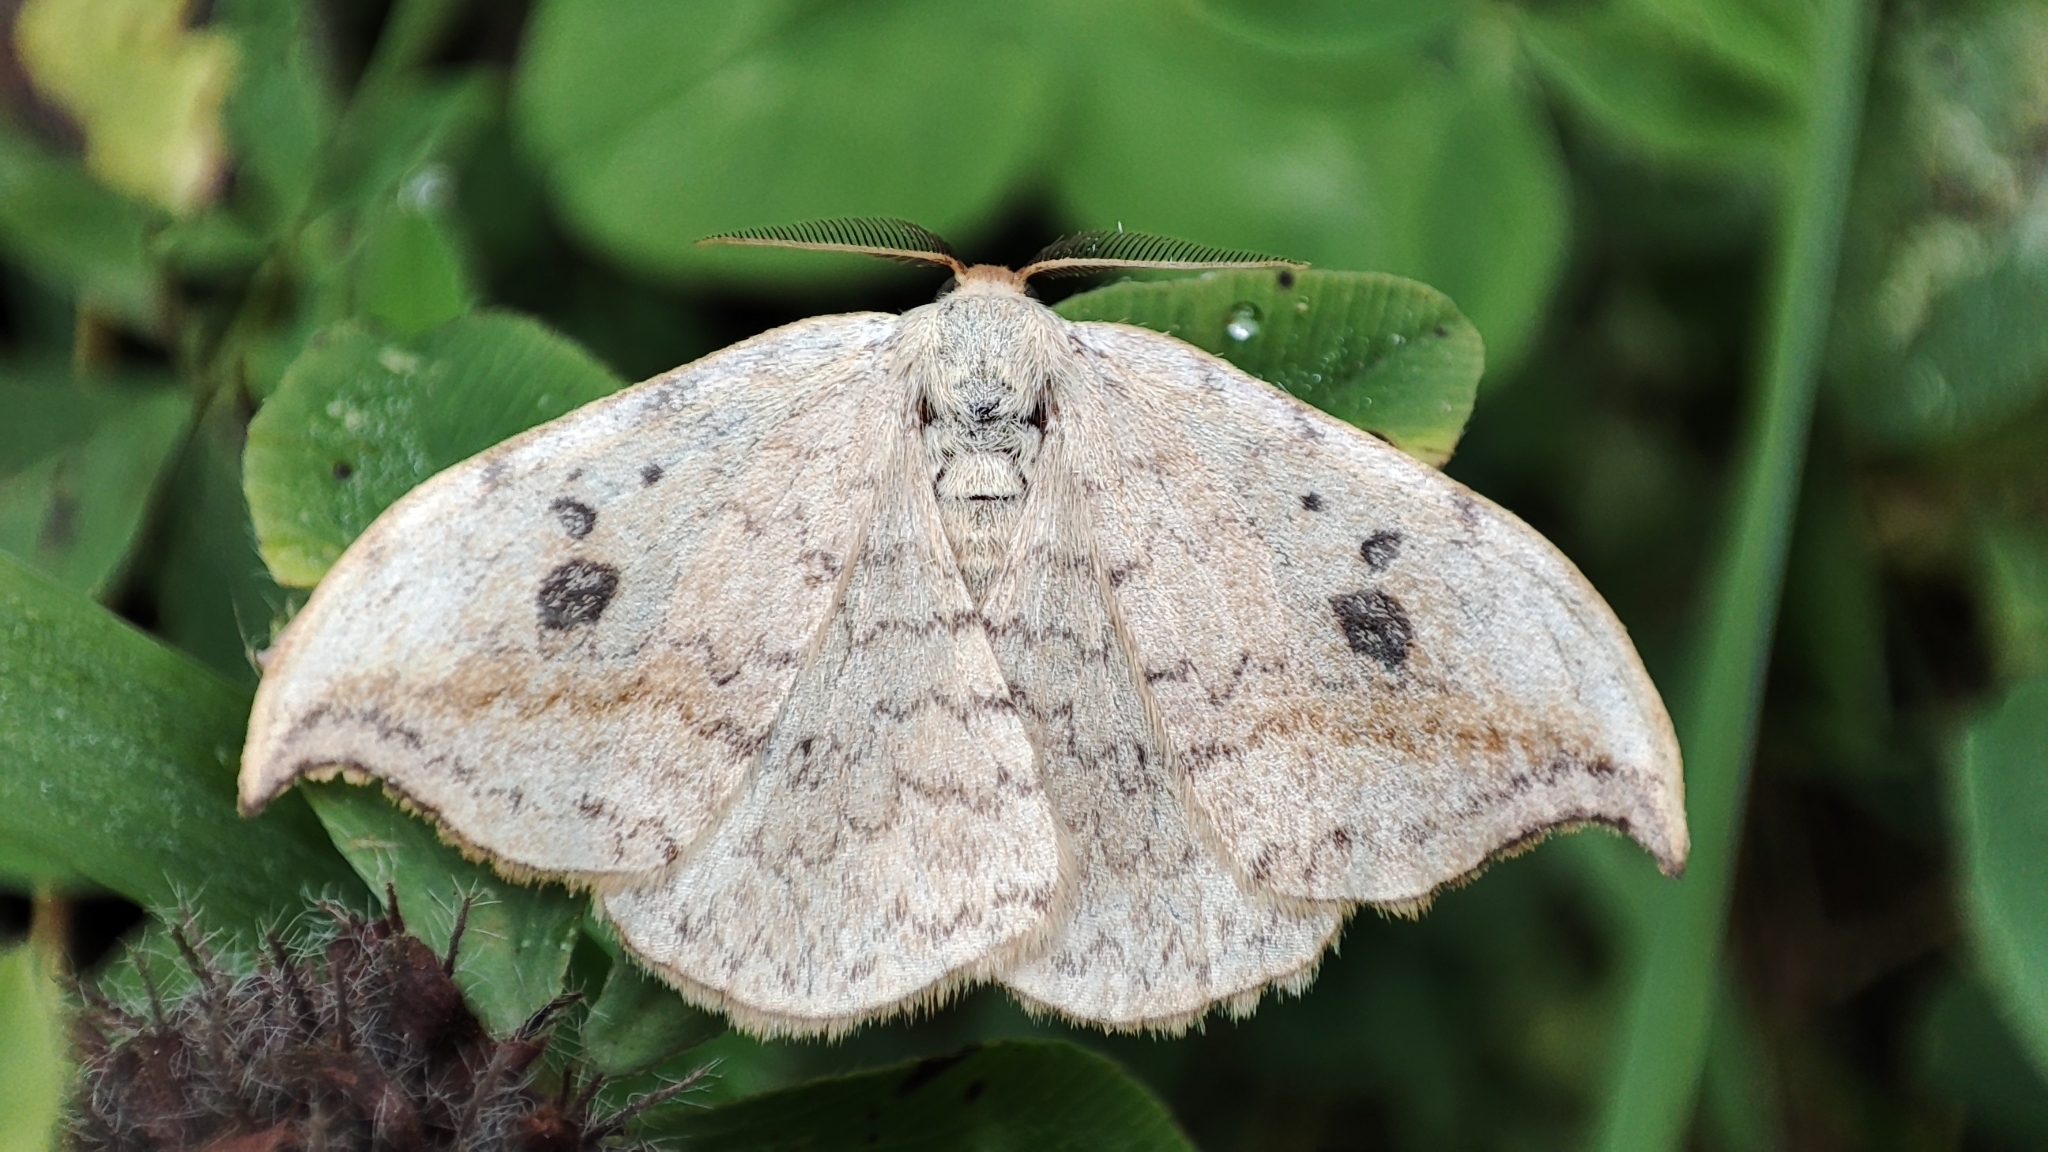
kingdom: Animalia
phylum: Arthropoda
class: Insecta
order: Lepidoptera
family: Drepanidae
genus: Drepana
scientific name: Drepana falcataria
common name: Pebble hook-tip
